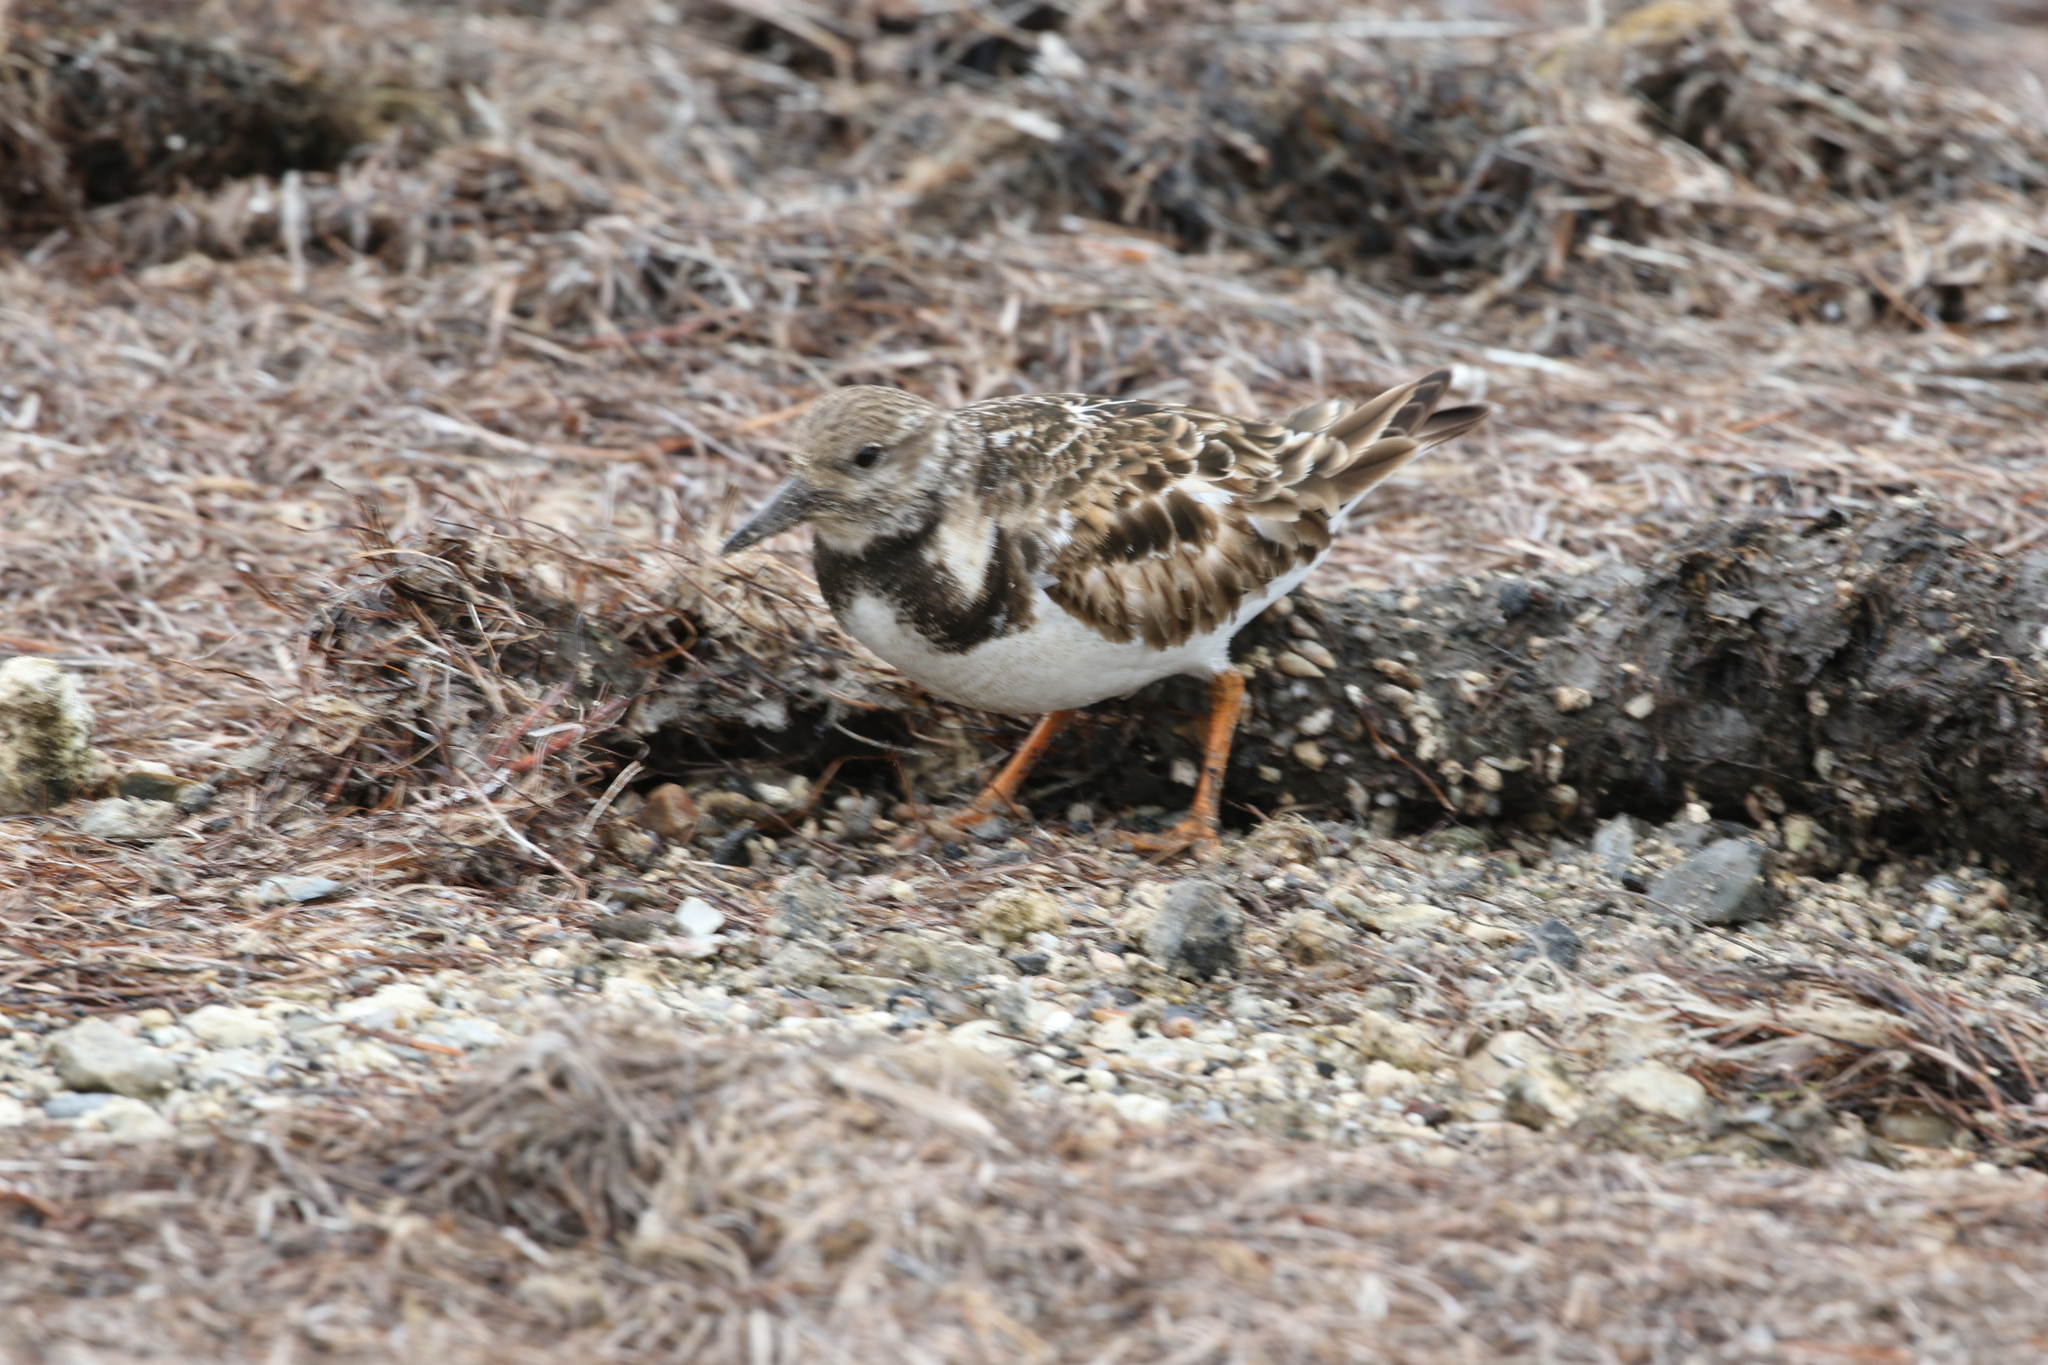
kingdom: Animalia
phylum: Chordata
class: Aves
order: Charadriiformes
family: Scolopacidae
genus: Arenaria
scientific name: Arenaria interpres
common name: Ruddy turnstone
